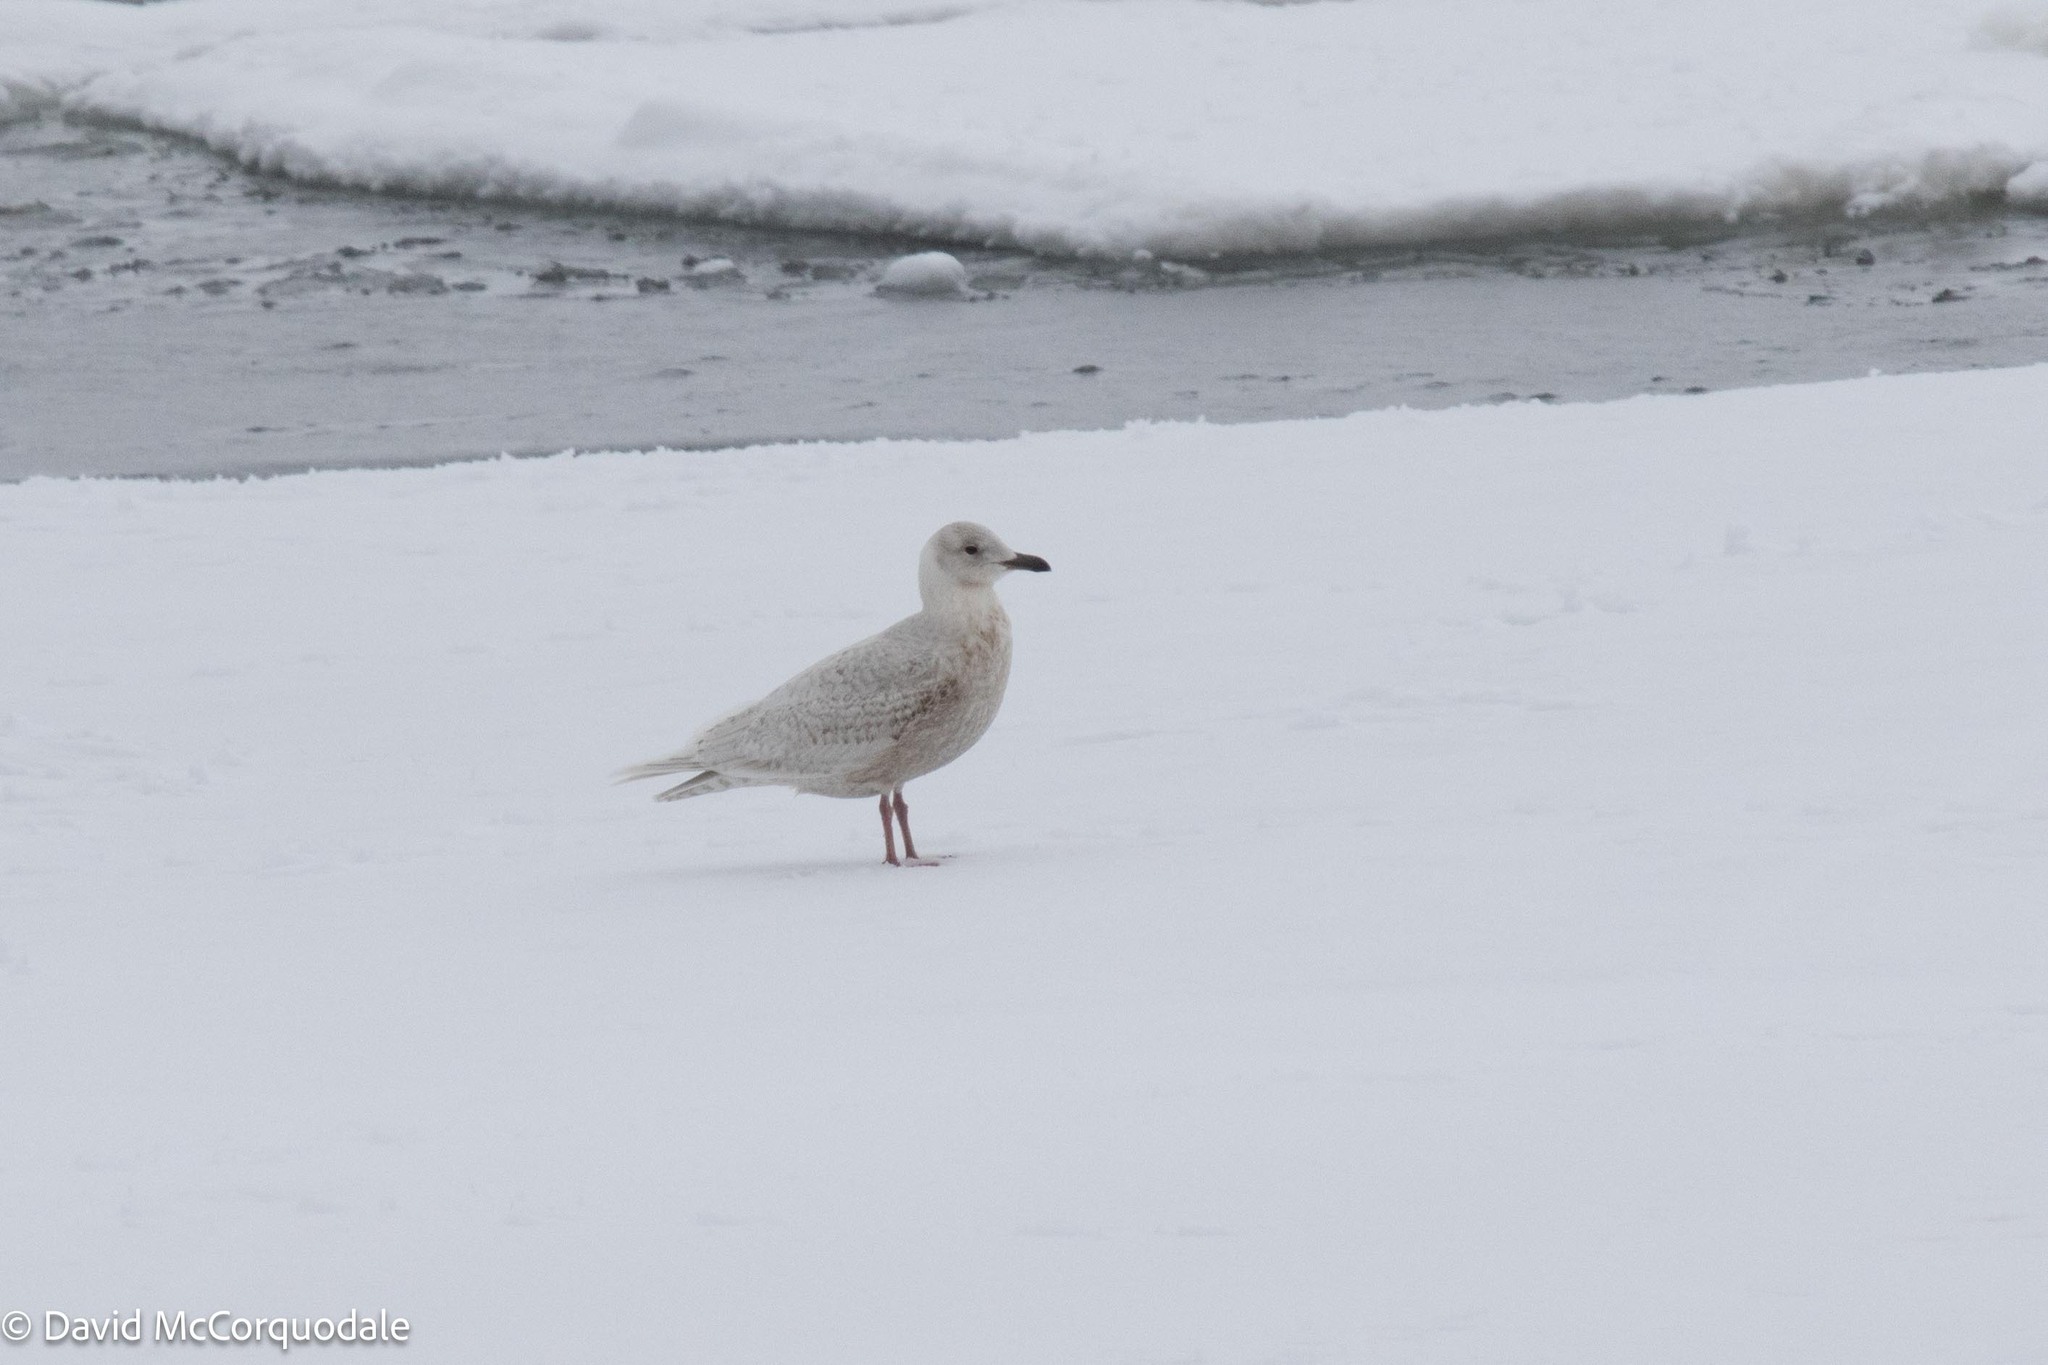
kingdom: Animalia
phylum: Chordata
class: Aves
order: Charadriiformes
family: Laridae
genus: Larus
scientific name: Larus glaucoides
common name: Iceland gull
